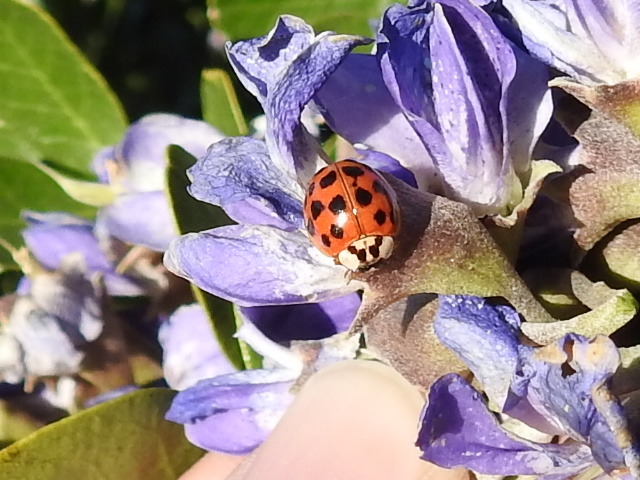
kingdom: Animalia
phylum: Arthropoda
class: Insecta
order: Coleoptera
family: Coccinellidae
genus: Harmonia
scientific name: Harmonia axyridis
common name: Harlequin ladybird
